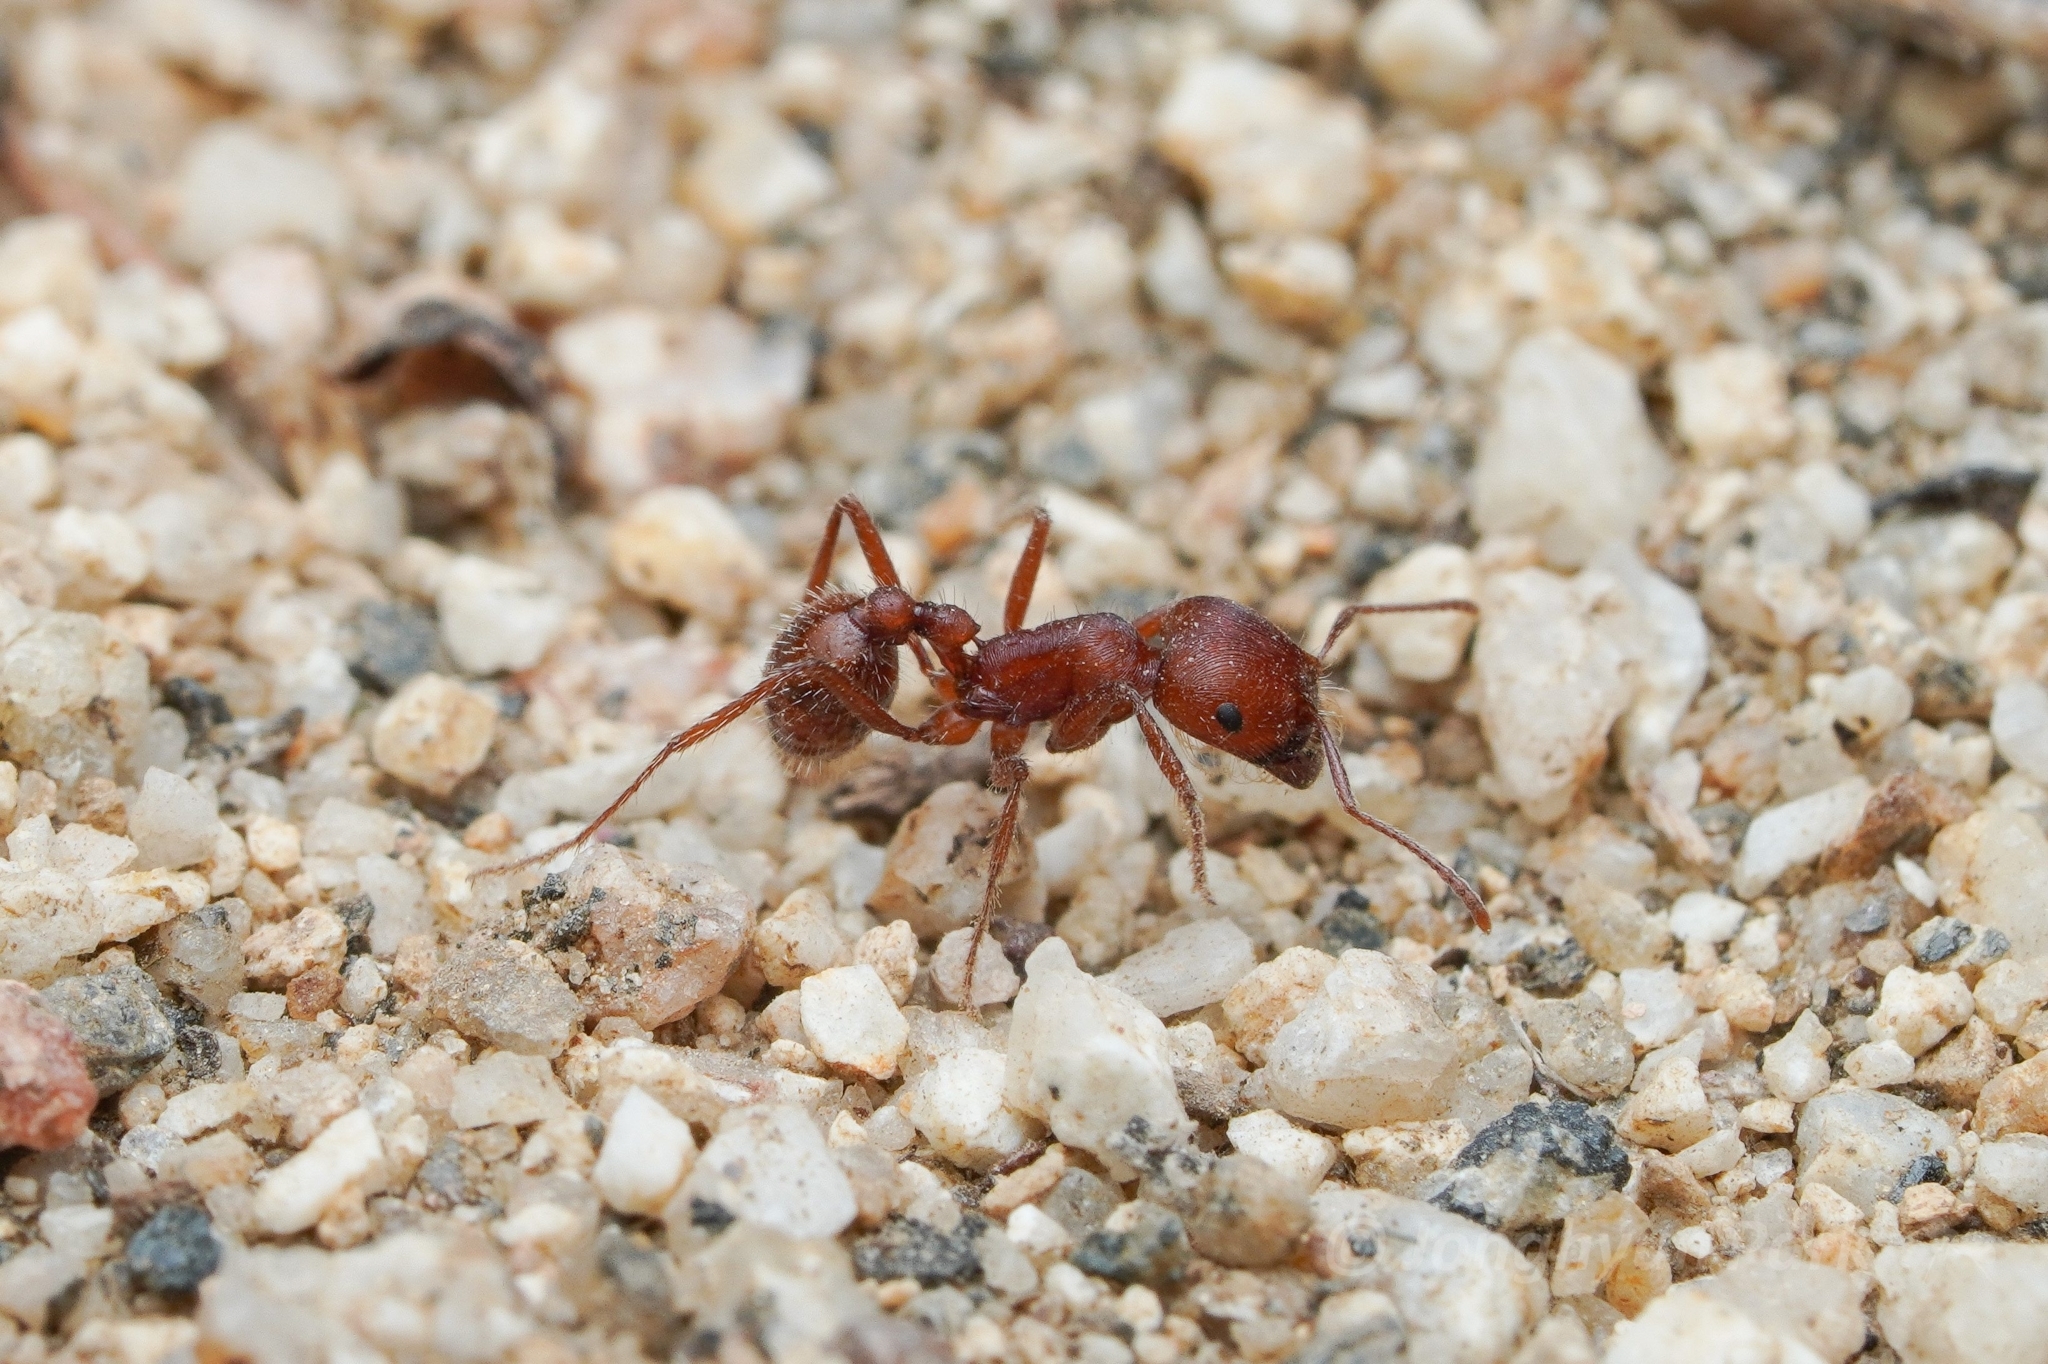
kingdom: Animalia
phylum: Arthropoda
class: Insecta
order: Hymenoptera
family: Formicidae
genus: Pogonomyrmex
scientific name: Pogonomyrmex subnitidus
